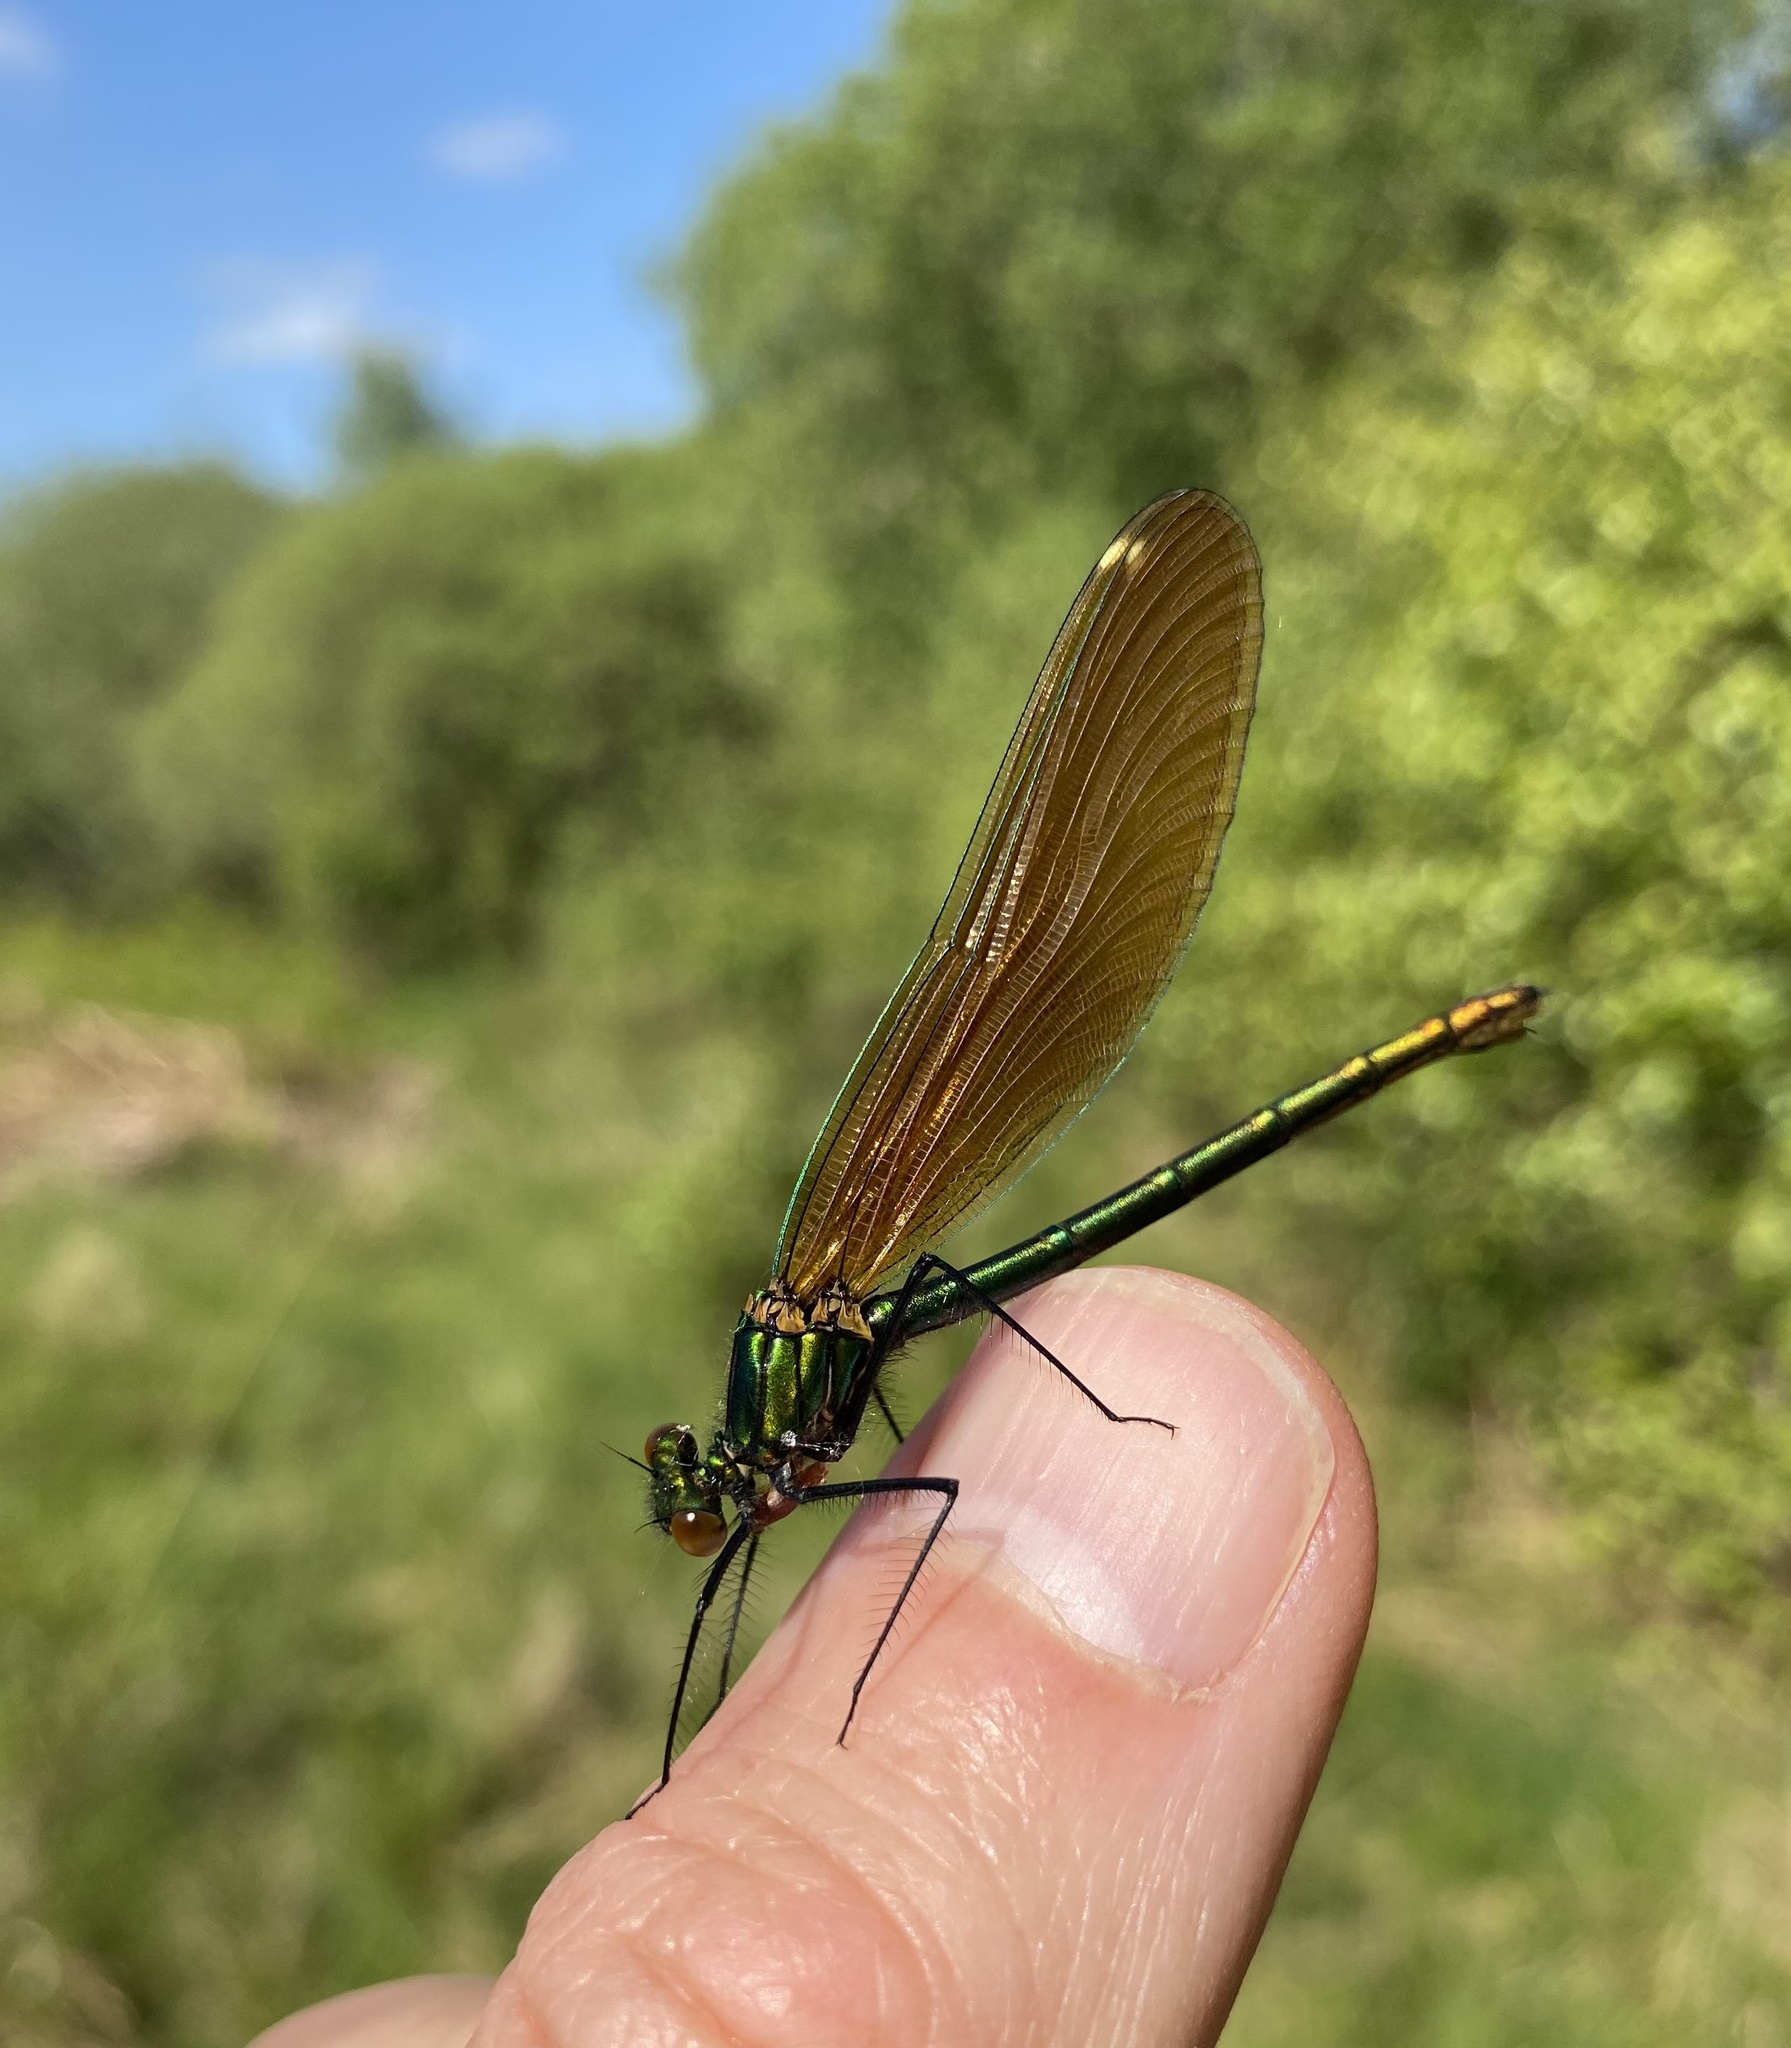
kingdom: Animalia
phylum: Arthropoda
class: Insecta
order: Odonata
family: Calopterygidae
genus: Calopteryx
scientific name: Calopteryx virgo
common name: Beautiful demoiselle
